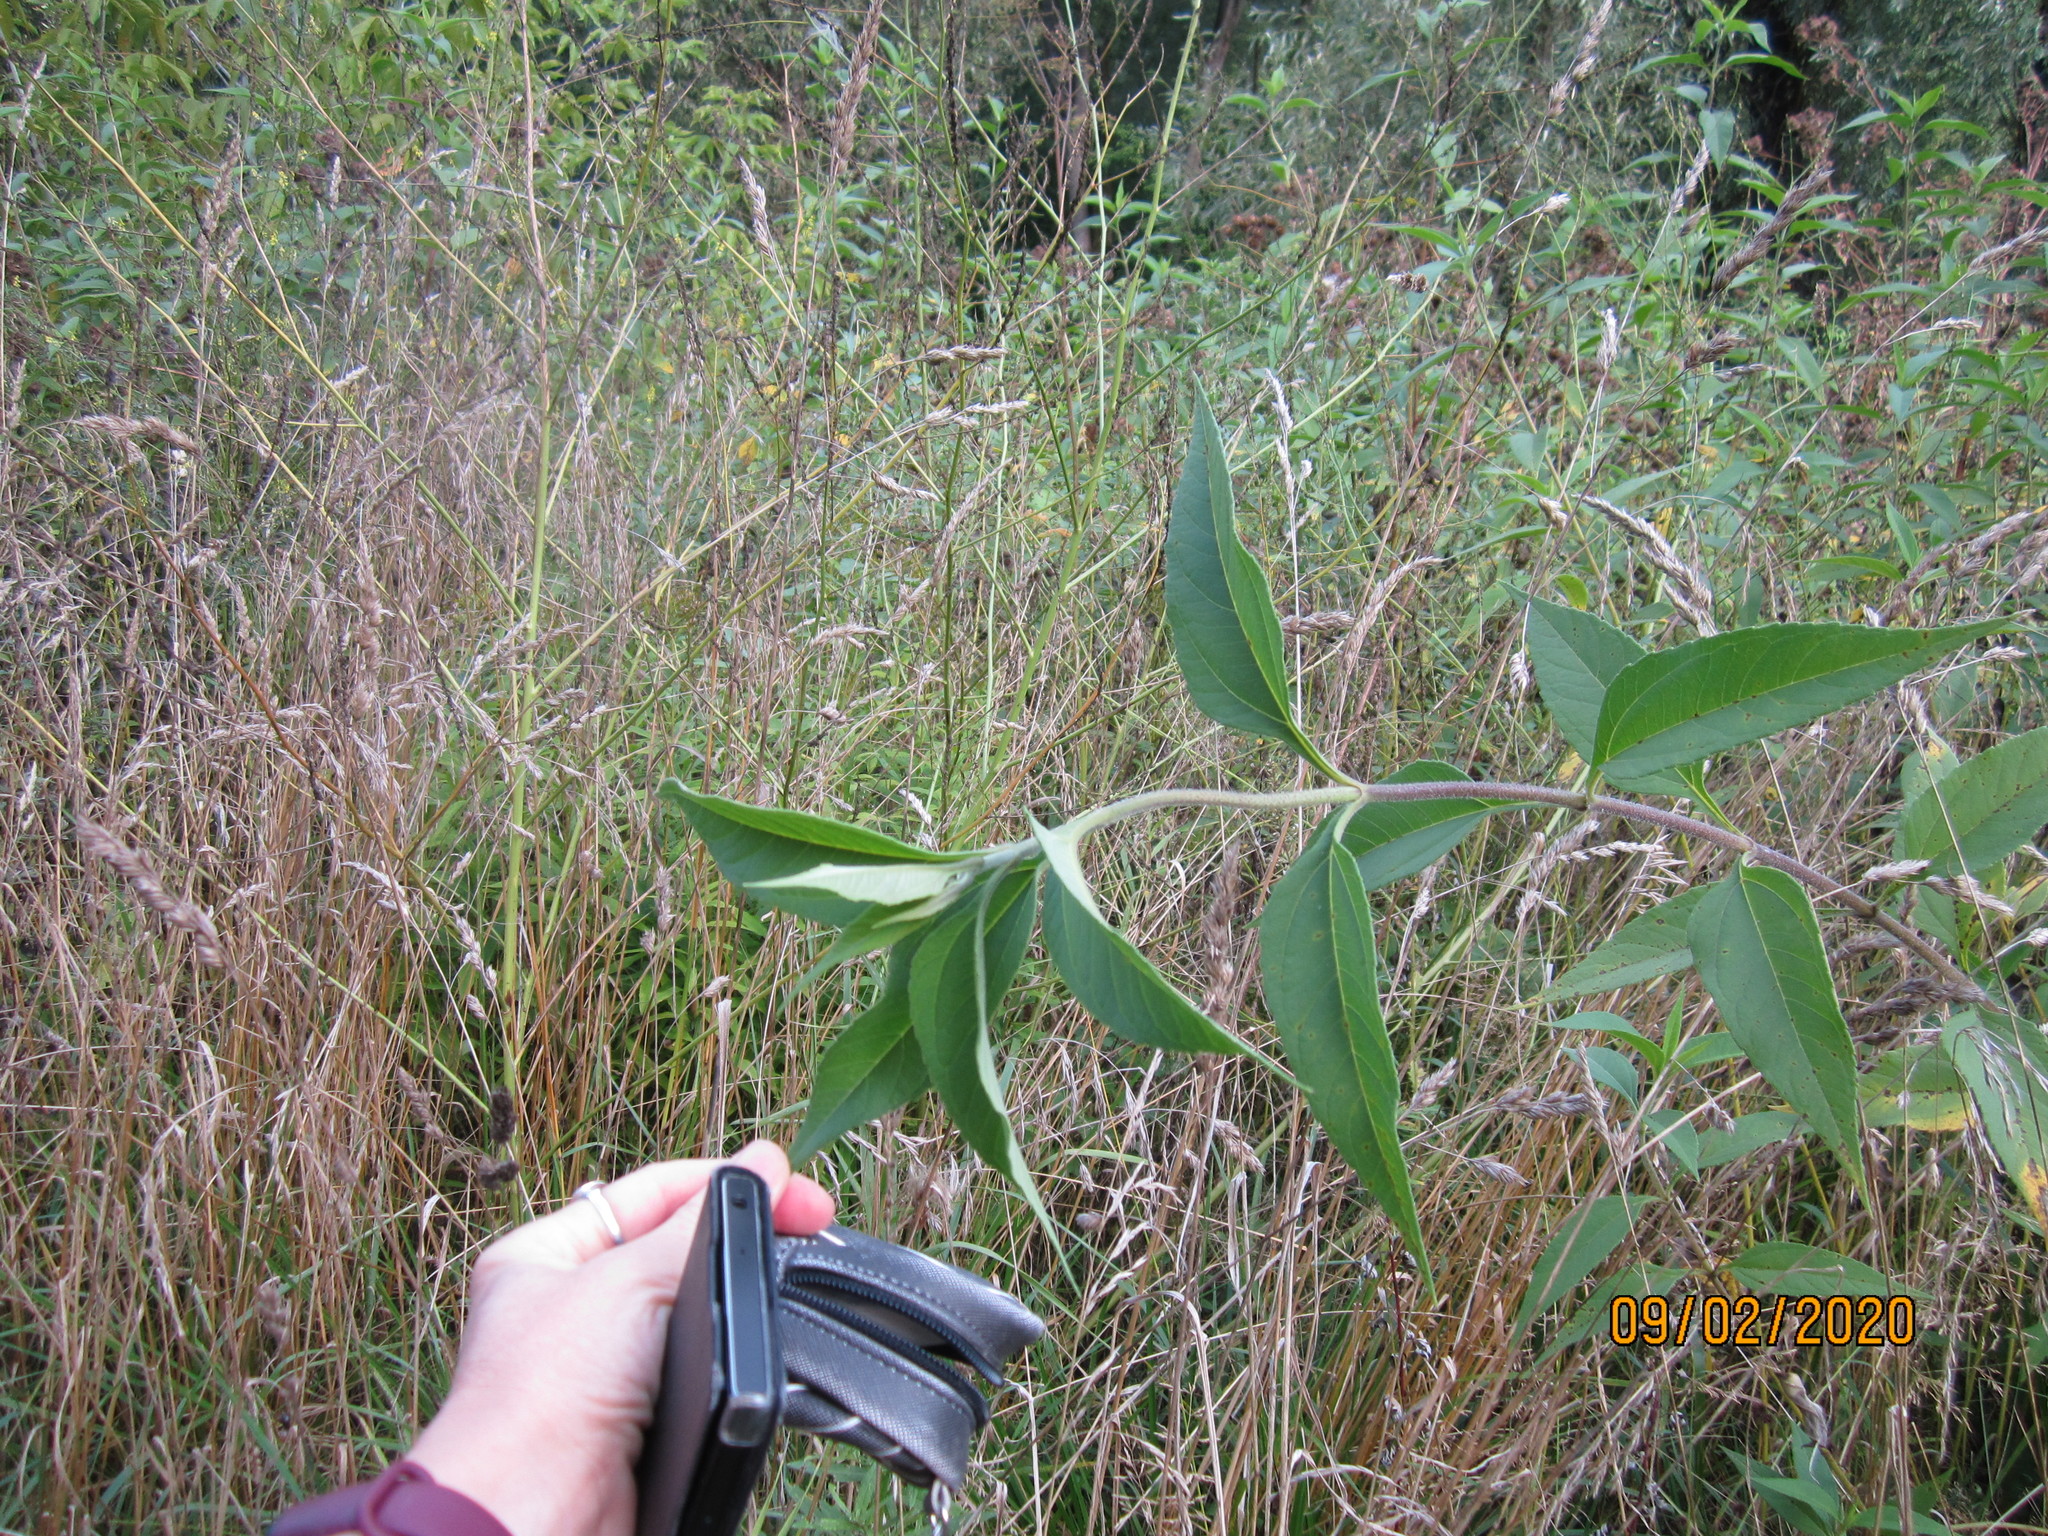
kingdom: Plantae
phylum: Tracheophyta
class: Magnoliopsida
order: Asterales
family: Asteraceae
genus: Helianthus
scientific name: Helianthus tuberosus
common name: Jerusalem artichoke
